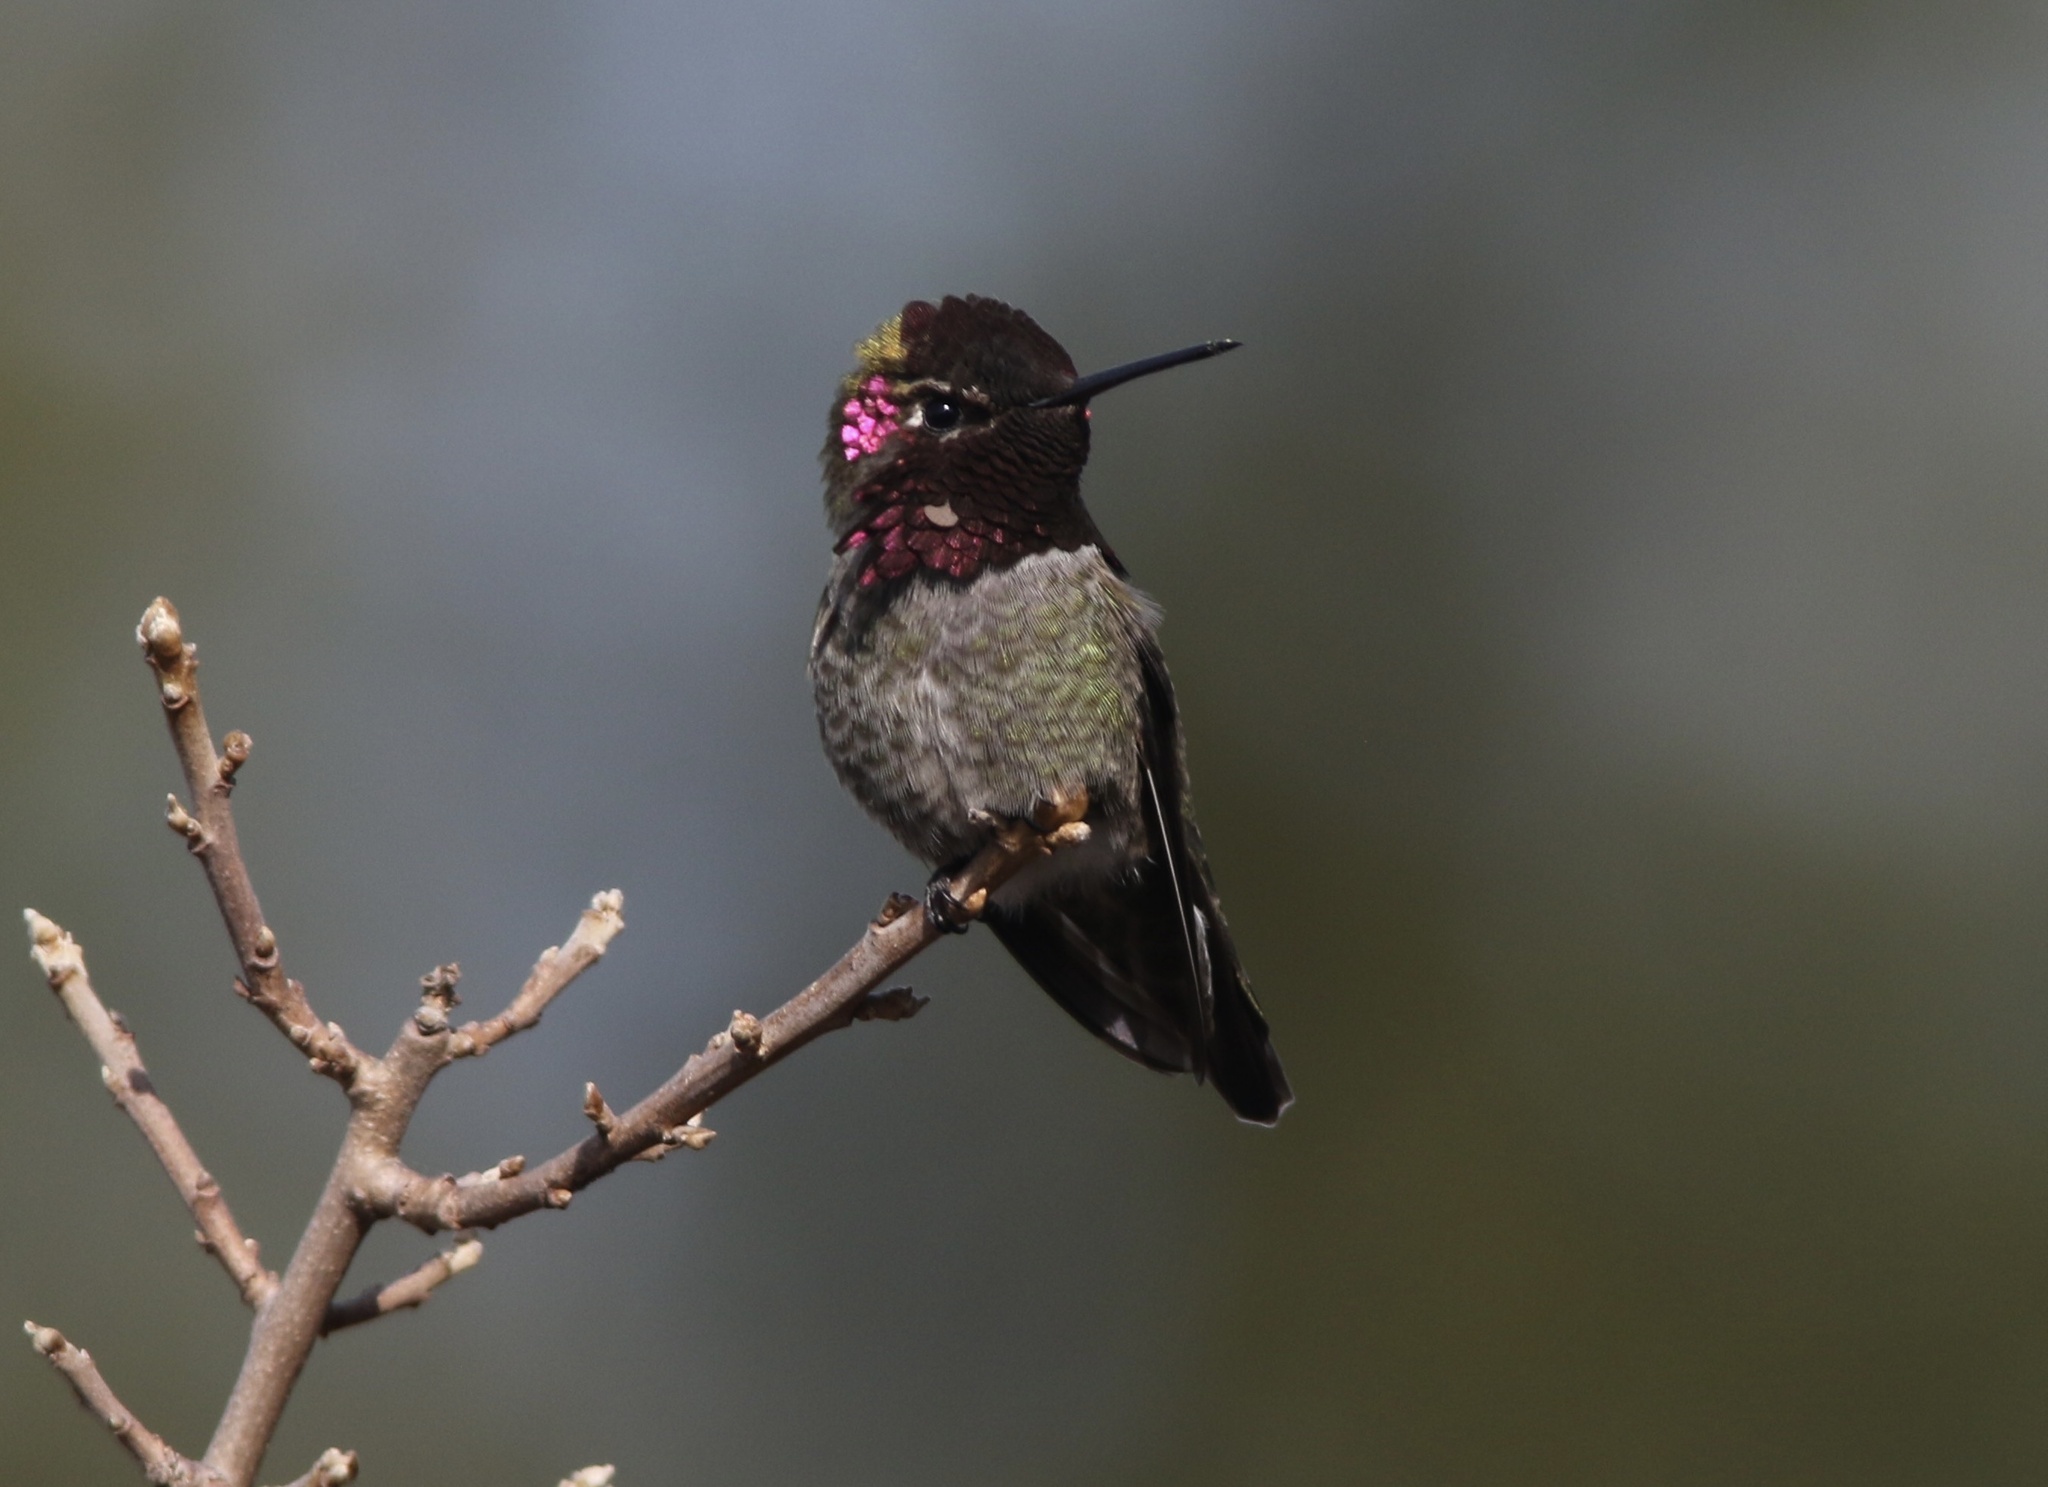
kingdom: Animalia
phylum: Chordata
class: Aves
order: Apodiformes
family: Trochilidae
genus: Calypte
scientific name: Calypte anna
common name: Anna's hummingbird
